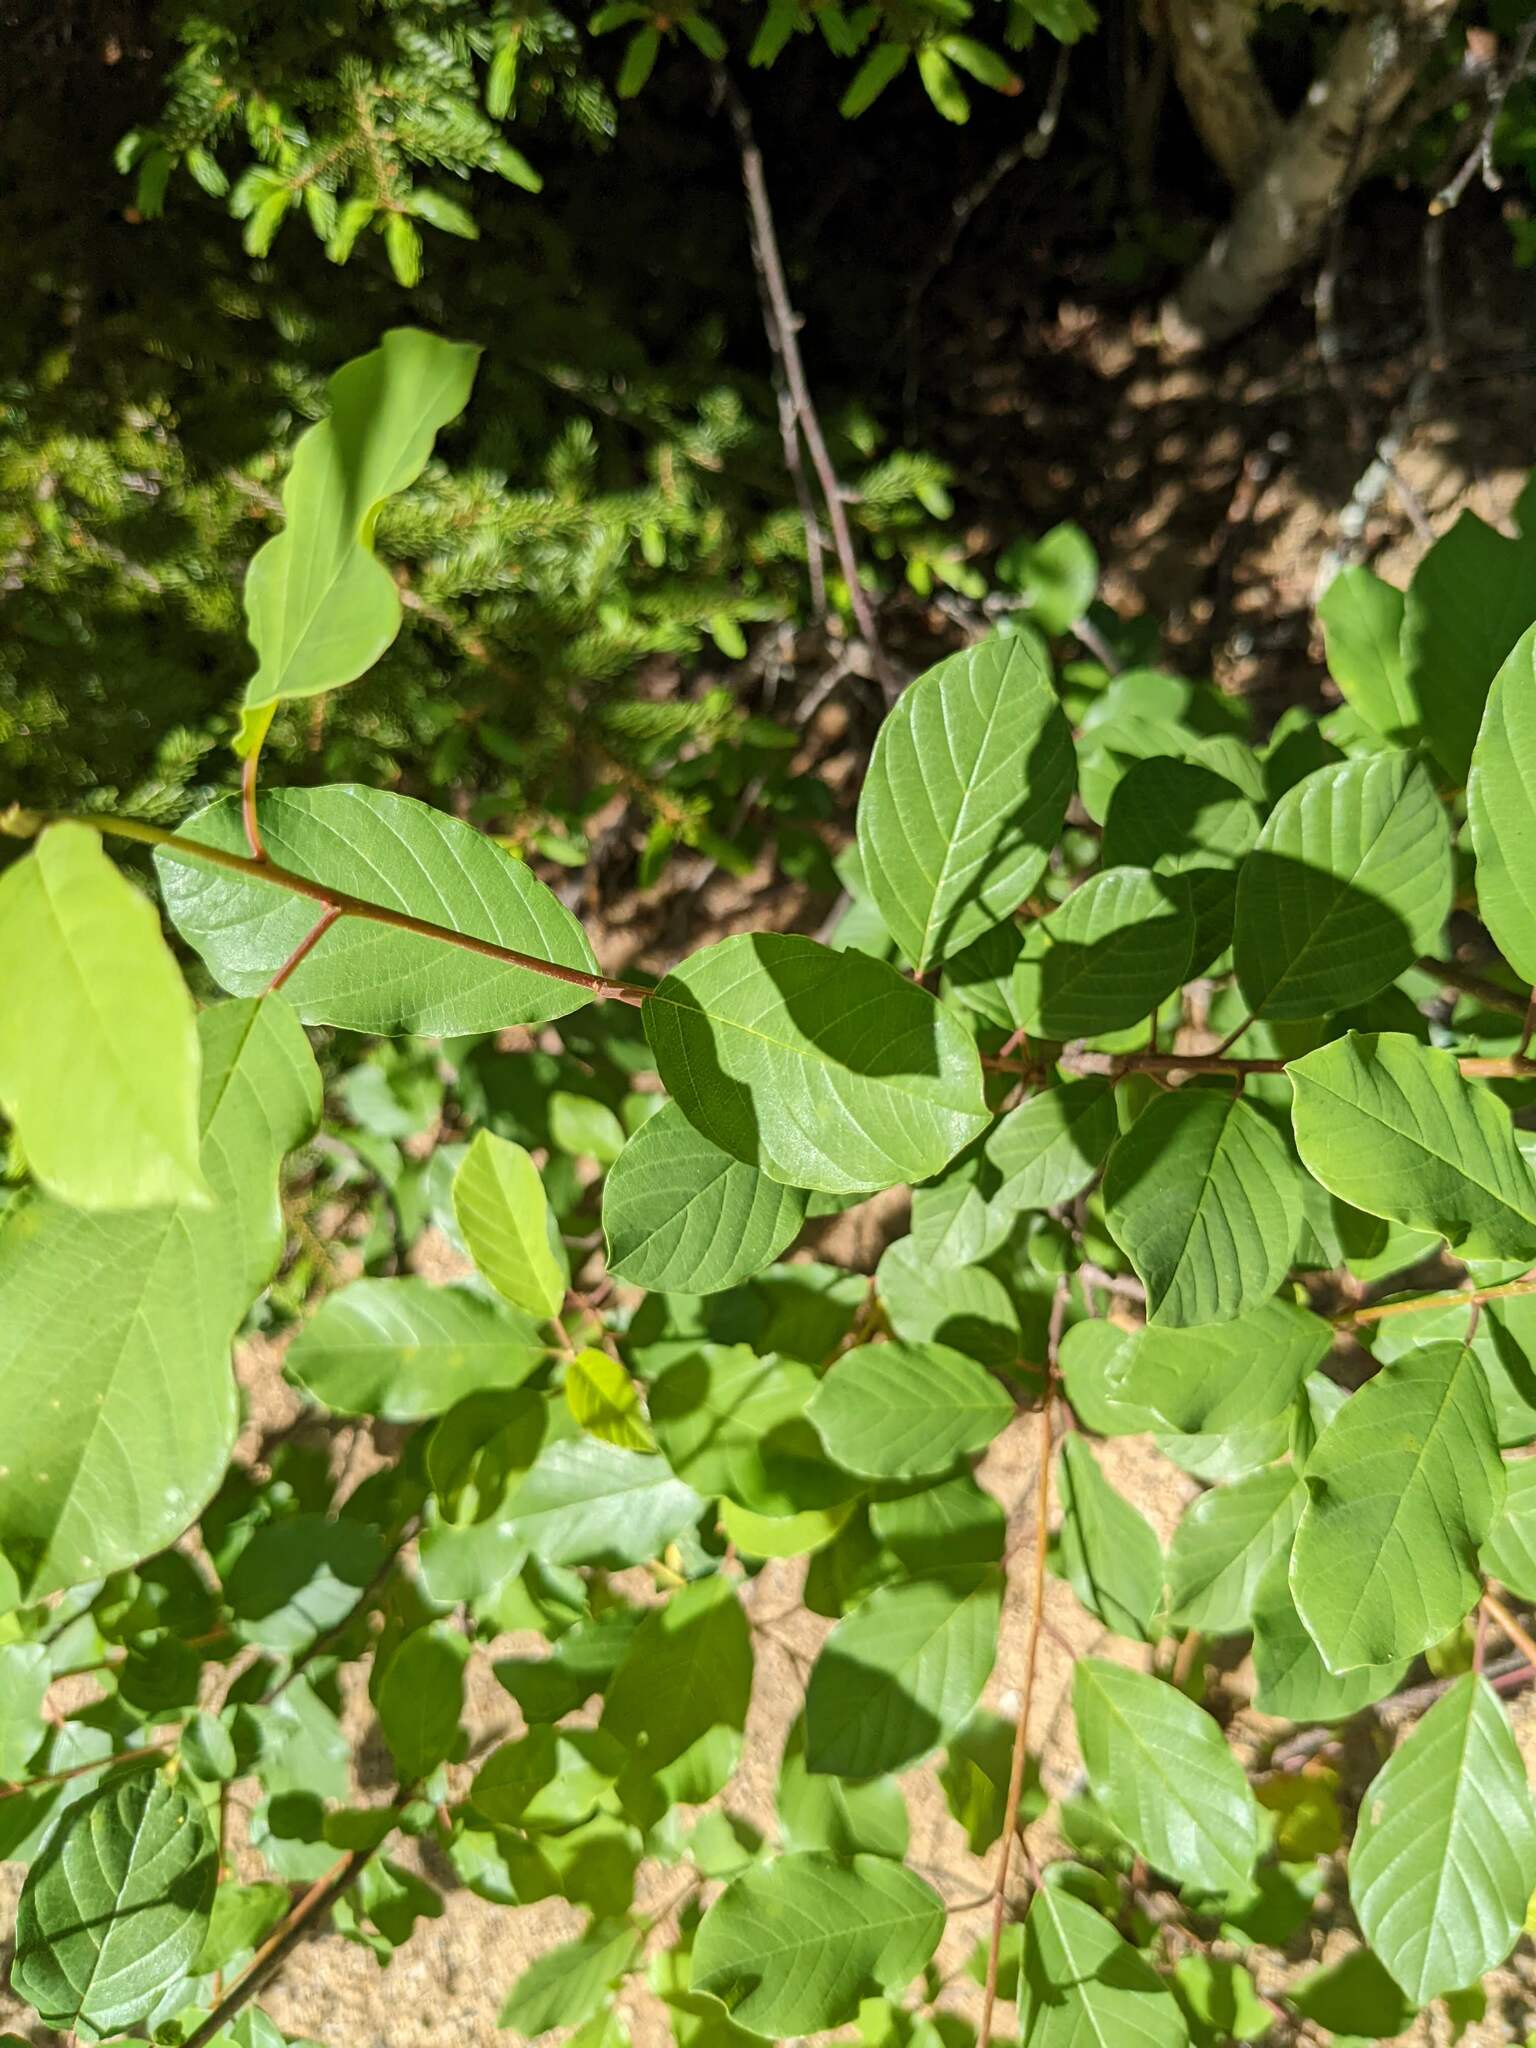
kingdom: Plantae
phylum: Tracheophyta
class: Magnoliopsida
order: Rosales
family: Rhamnaceae
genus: Frangula
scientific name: Frangula alnus
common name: Alder buckthorn
